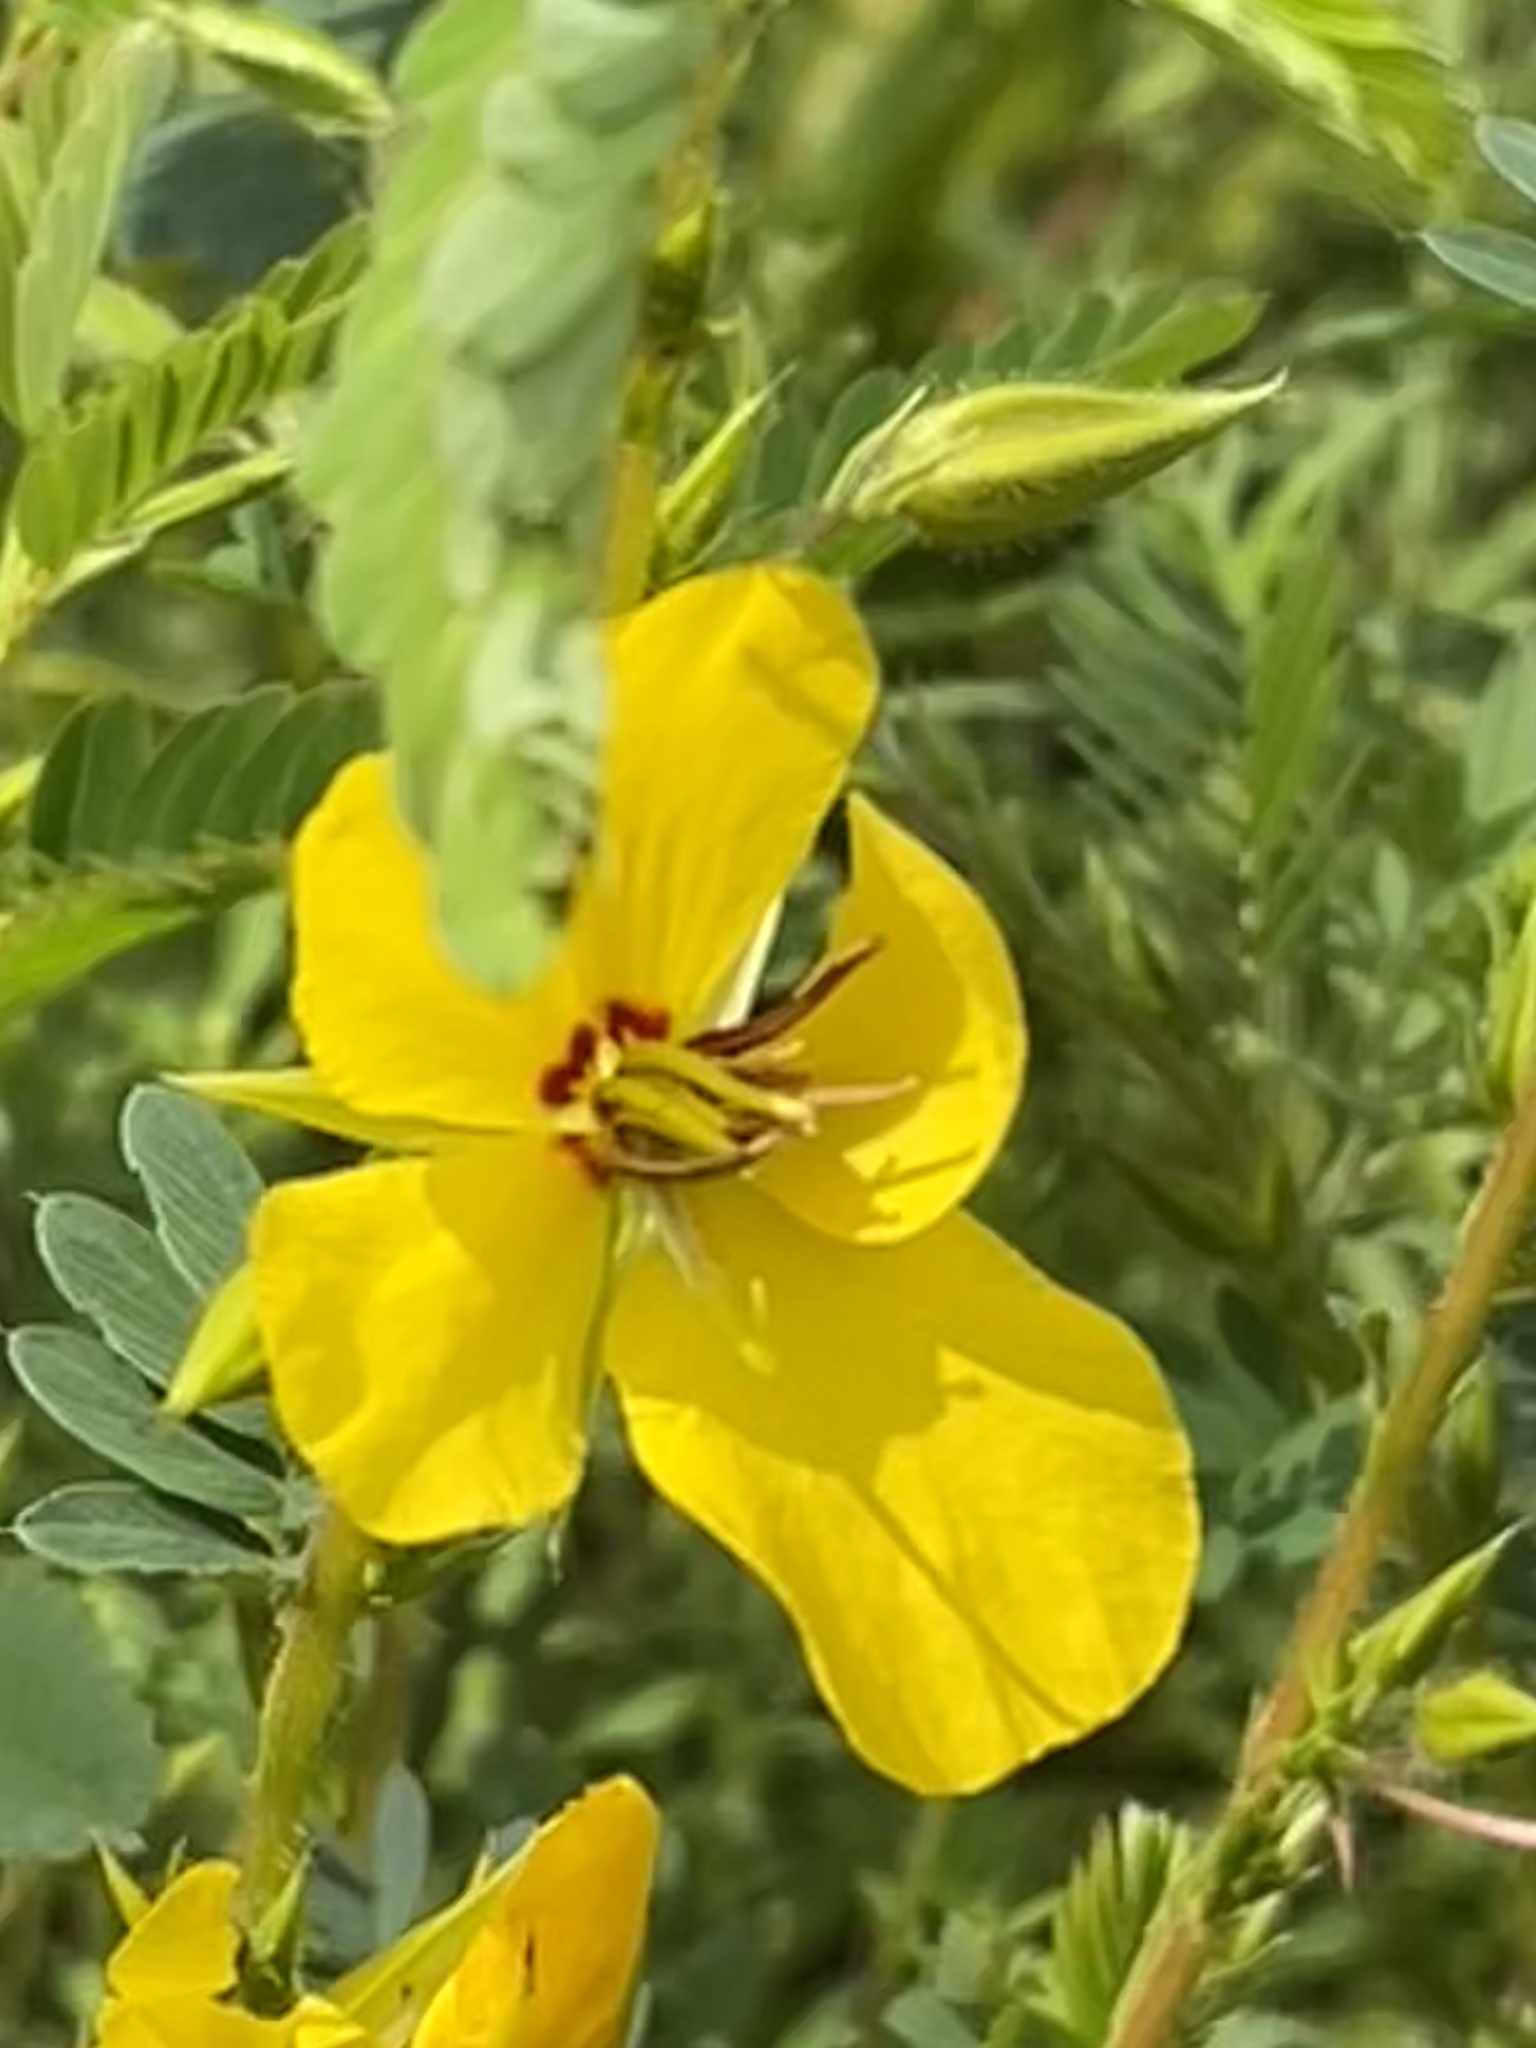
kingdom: Plantae
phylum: Tracheophyta
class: Magnoliopsida
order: Fabales
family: Fabaceae
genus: Chamaecrista
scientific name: Chamaecrista fasciculata
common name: Golden cassia
